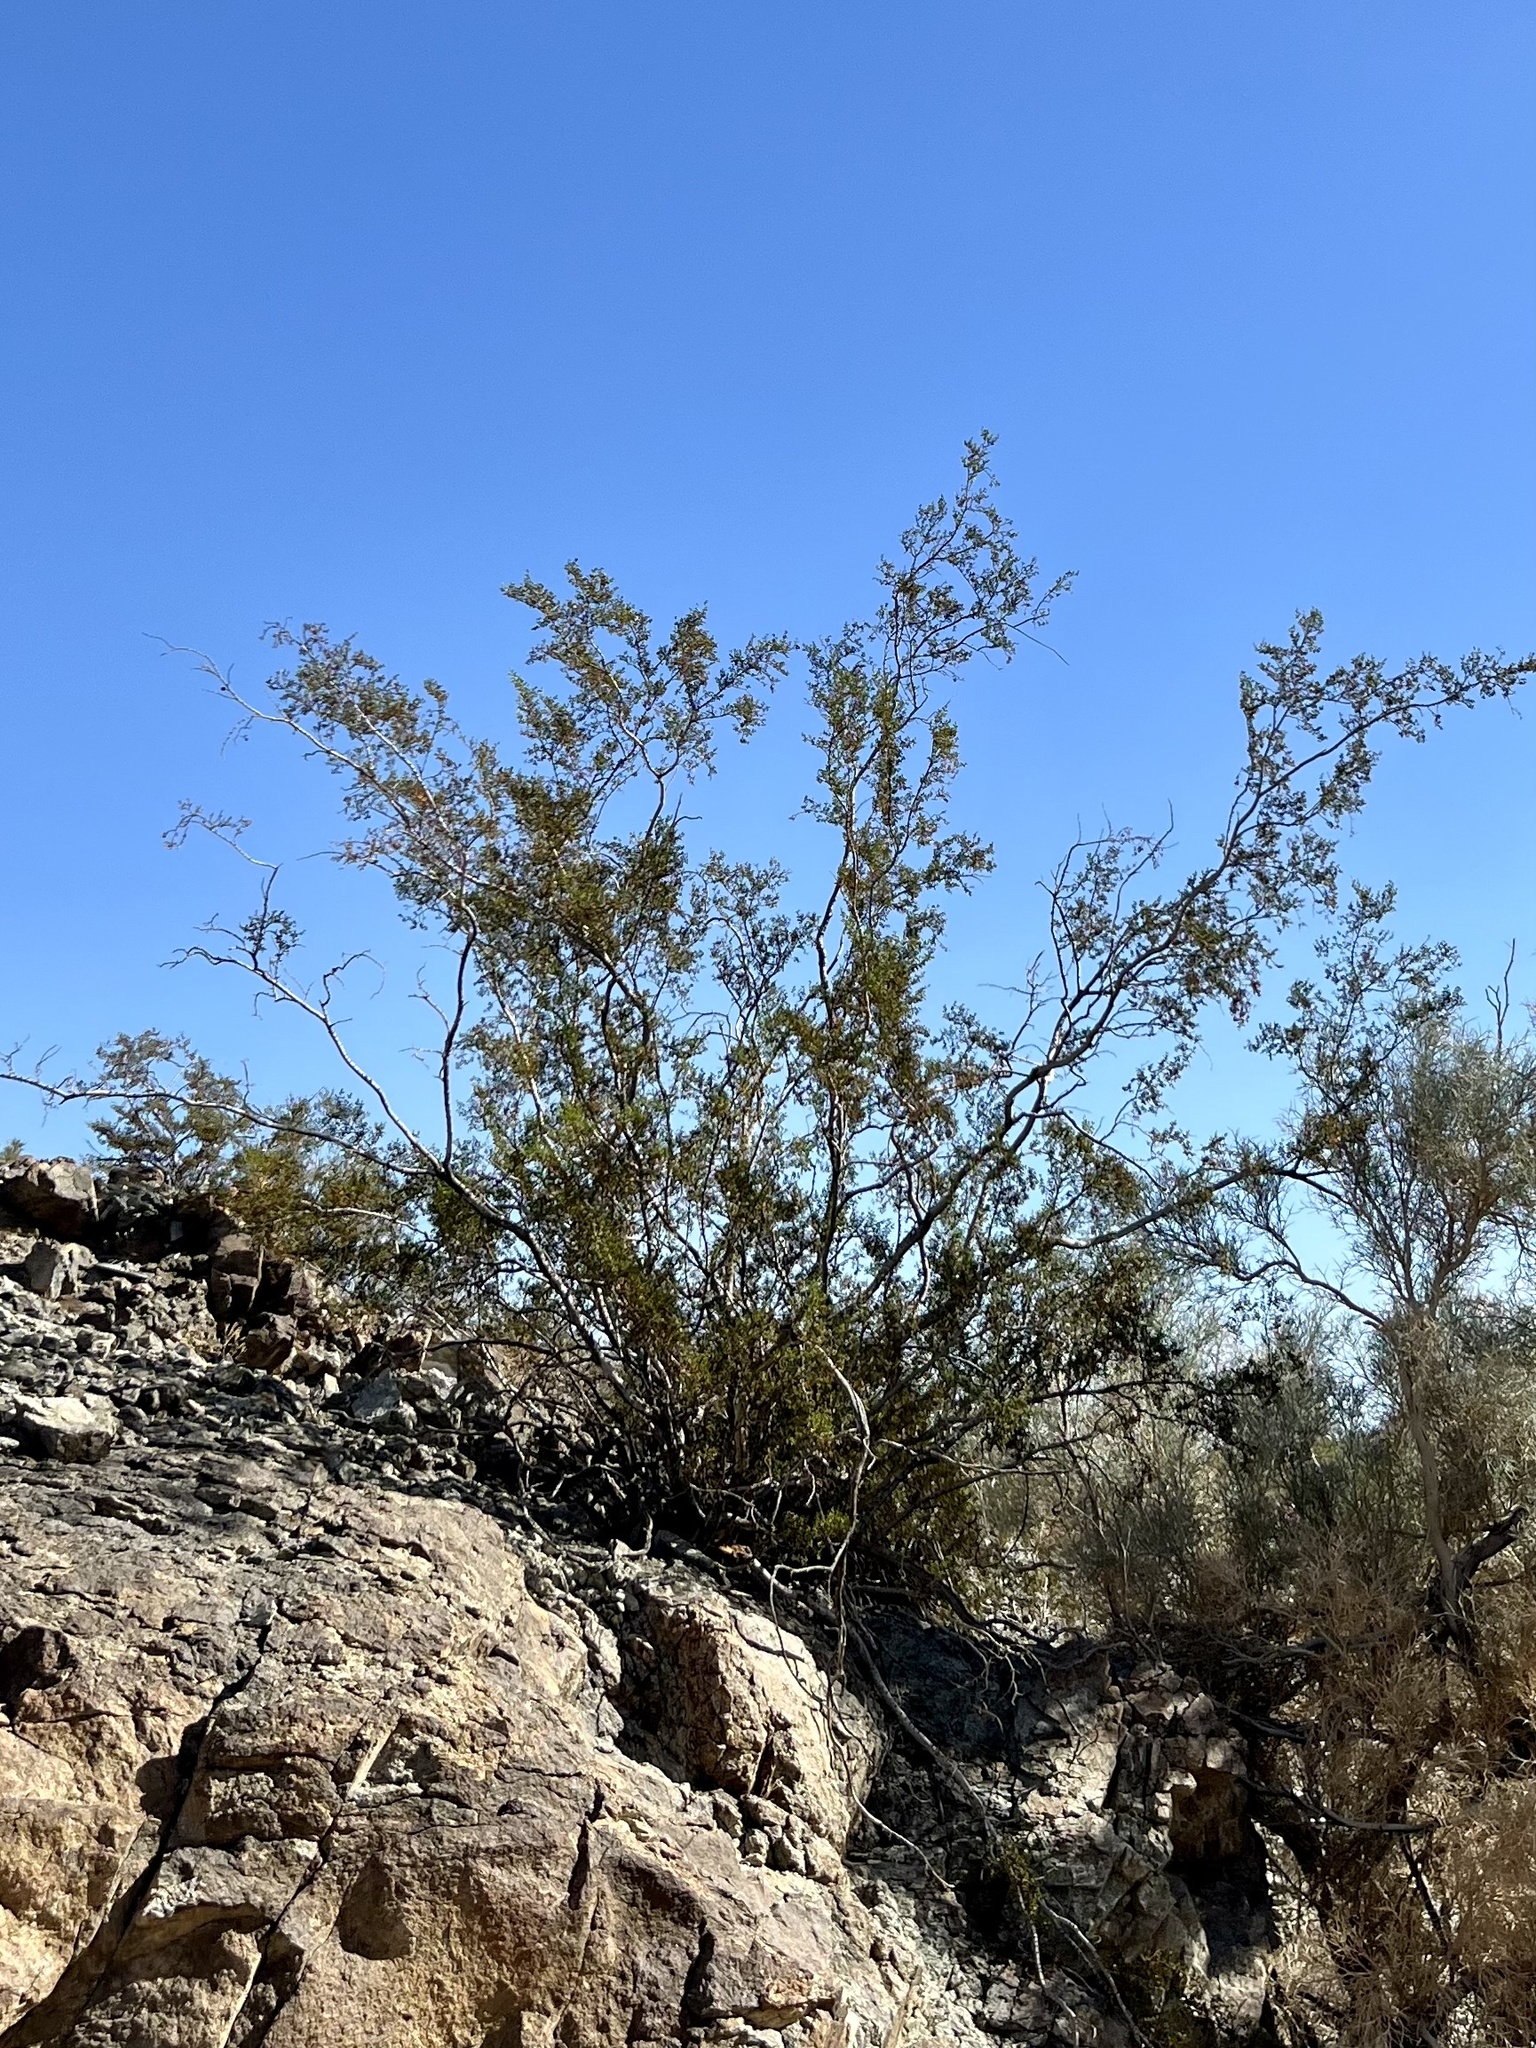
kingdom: Plantae
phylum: Tracheophyta
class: Magnoliopsida
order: Zygophyllales
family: Zygophyllaceae
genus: Larrea
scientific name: Larrea tridentata
